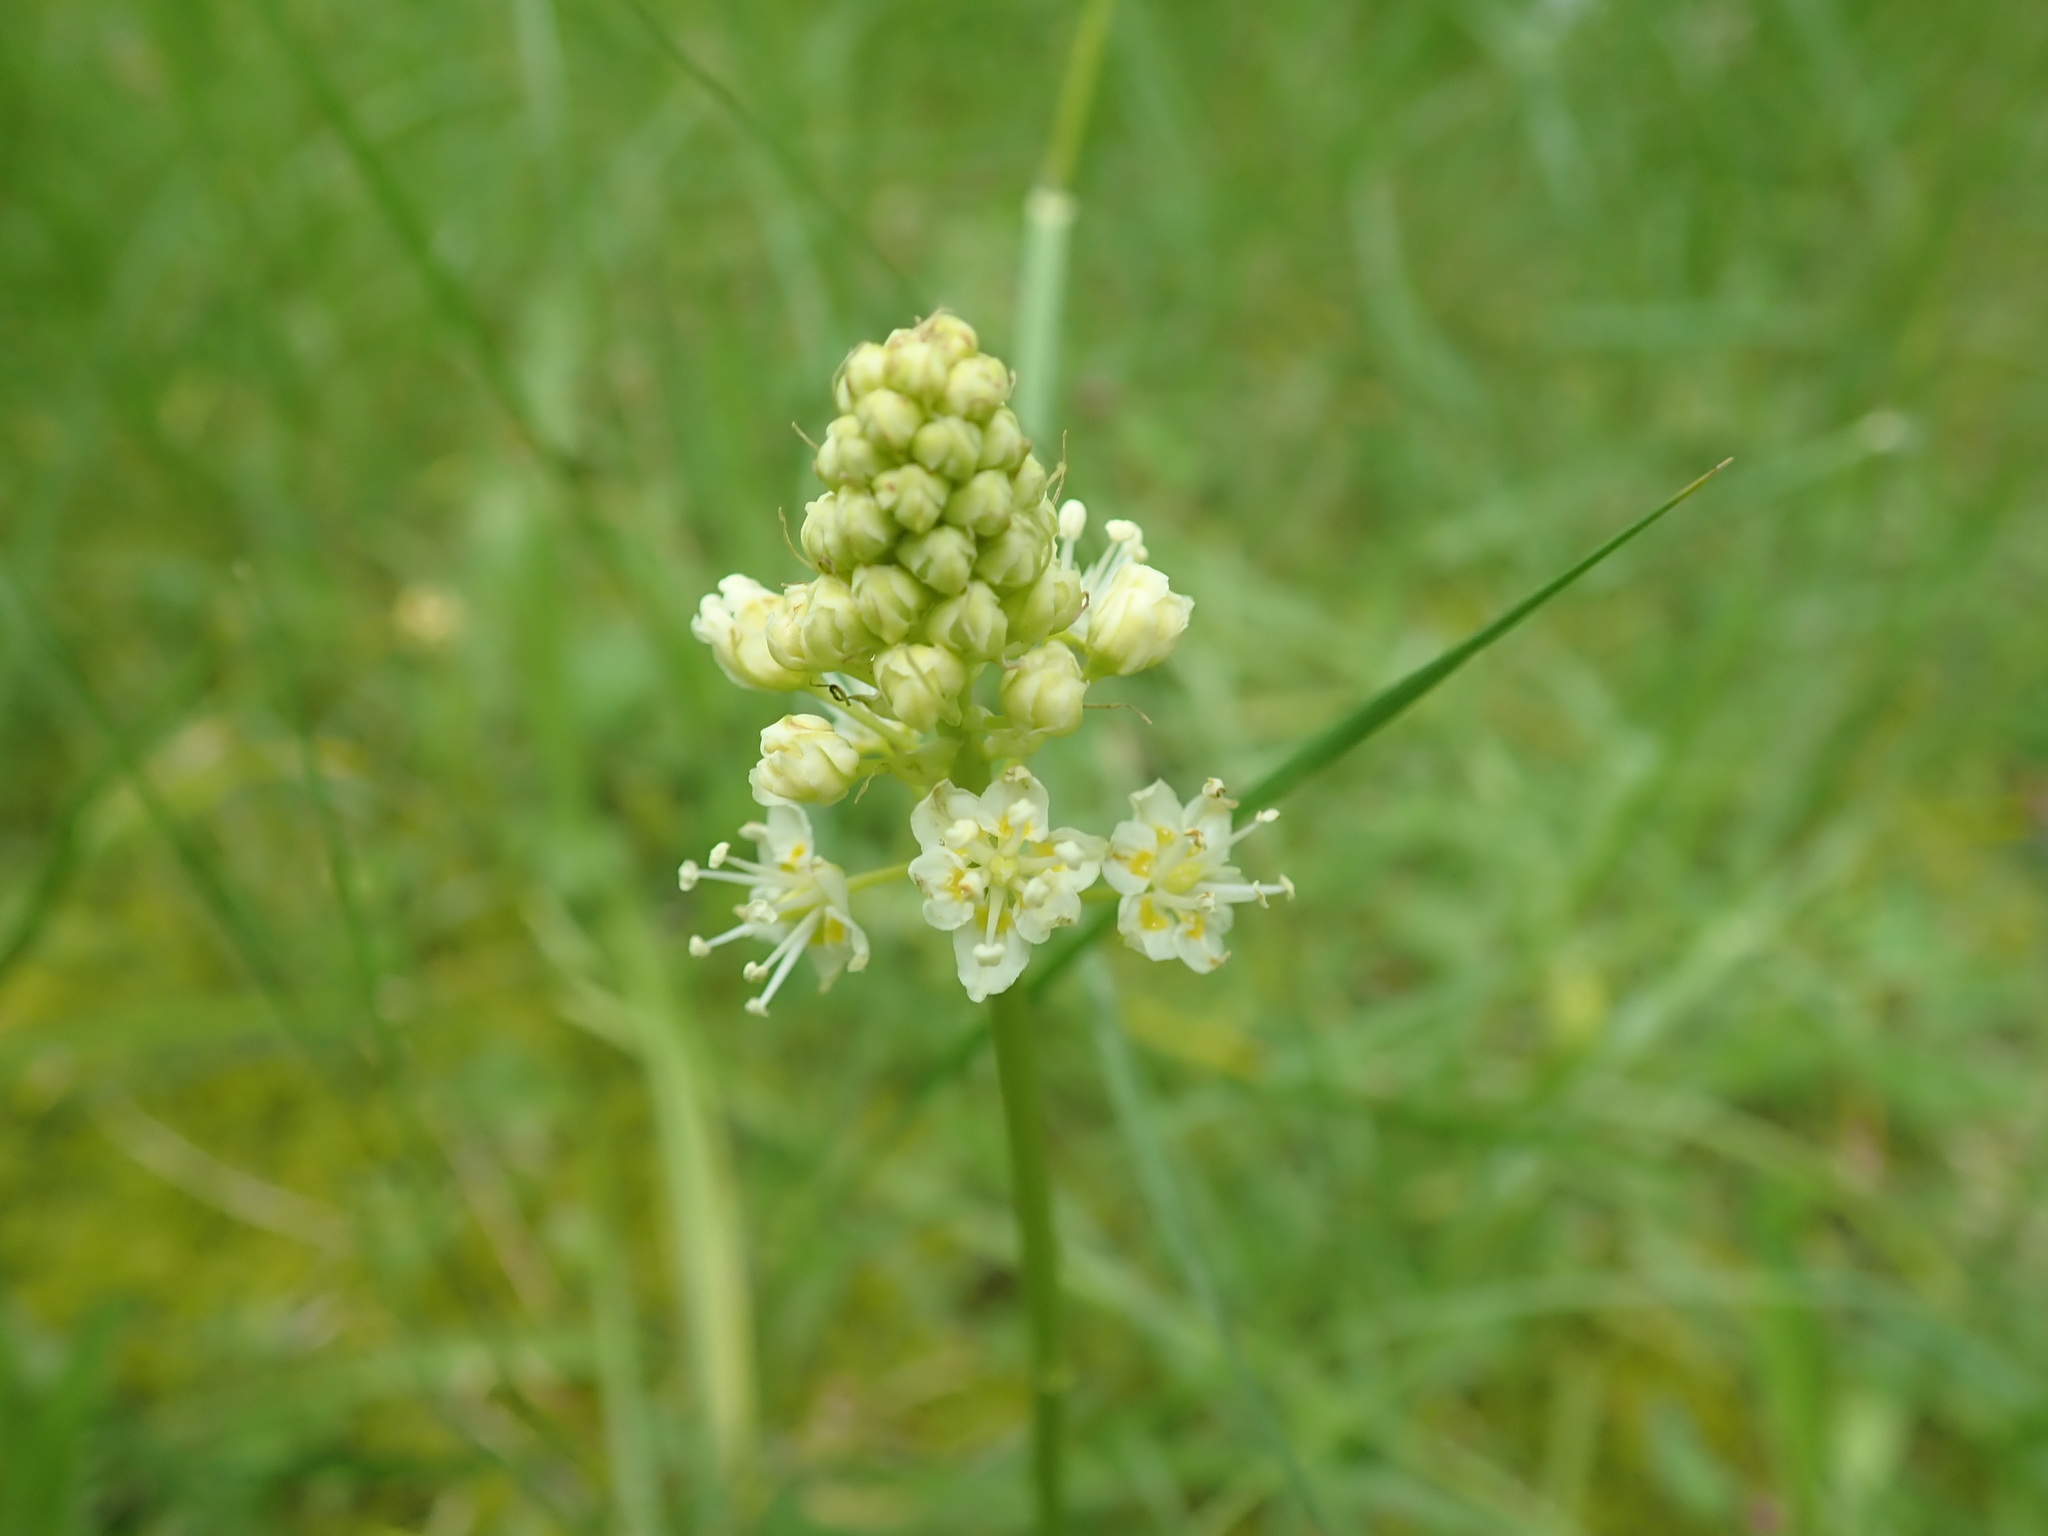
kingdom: Plantae
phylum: Tracheophyta
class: Liliopsida
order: Liliales
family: Melanthiaceae
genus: Toxicoscordion
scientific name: Toxicoscordion venenosum
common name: Meadow death camas
